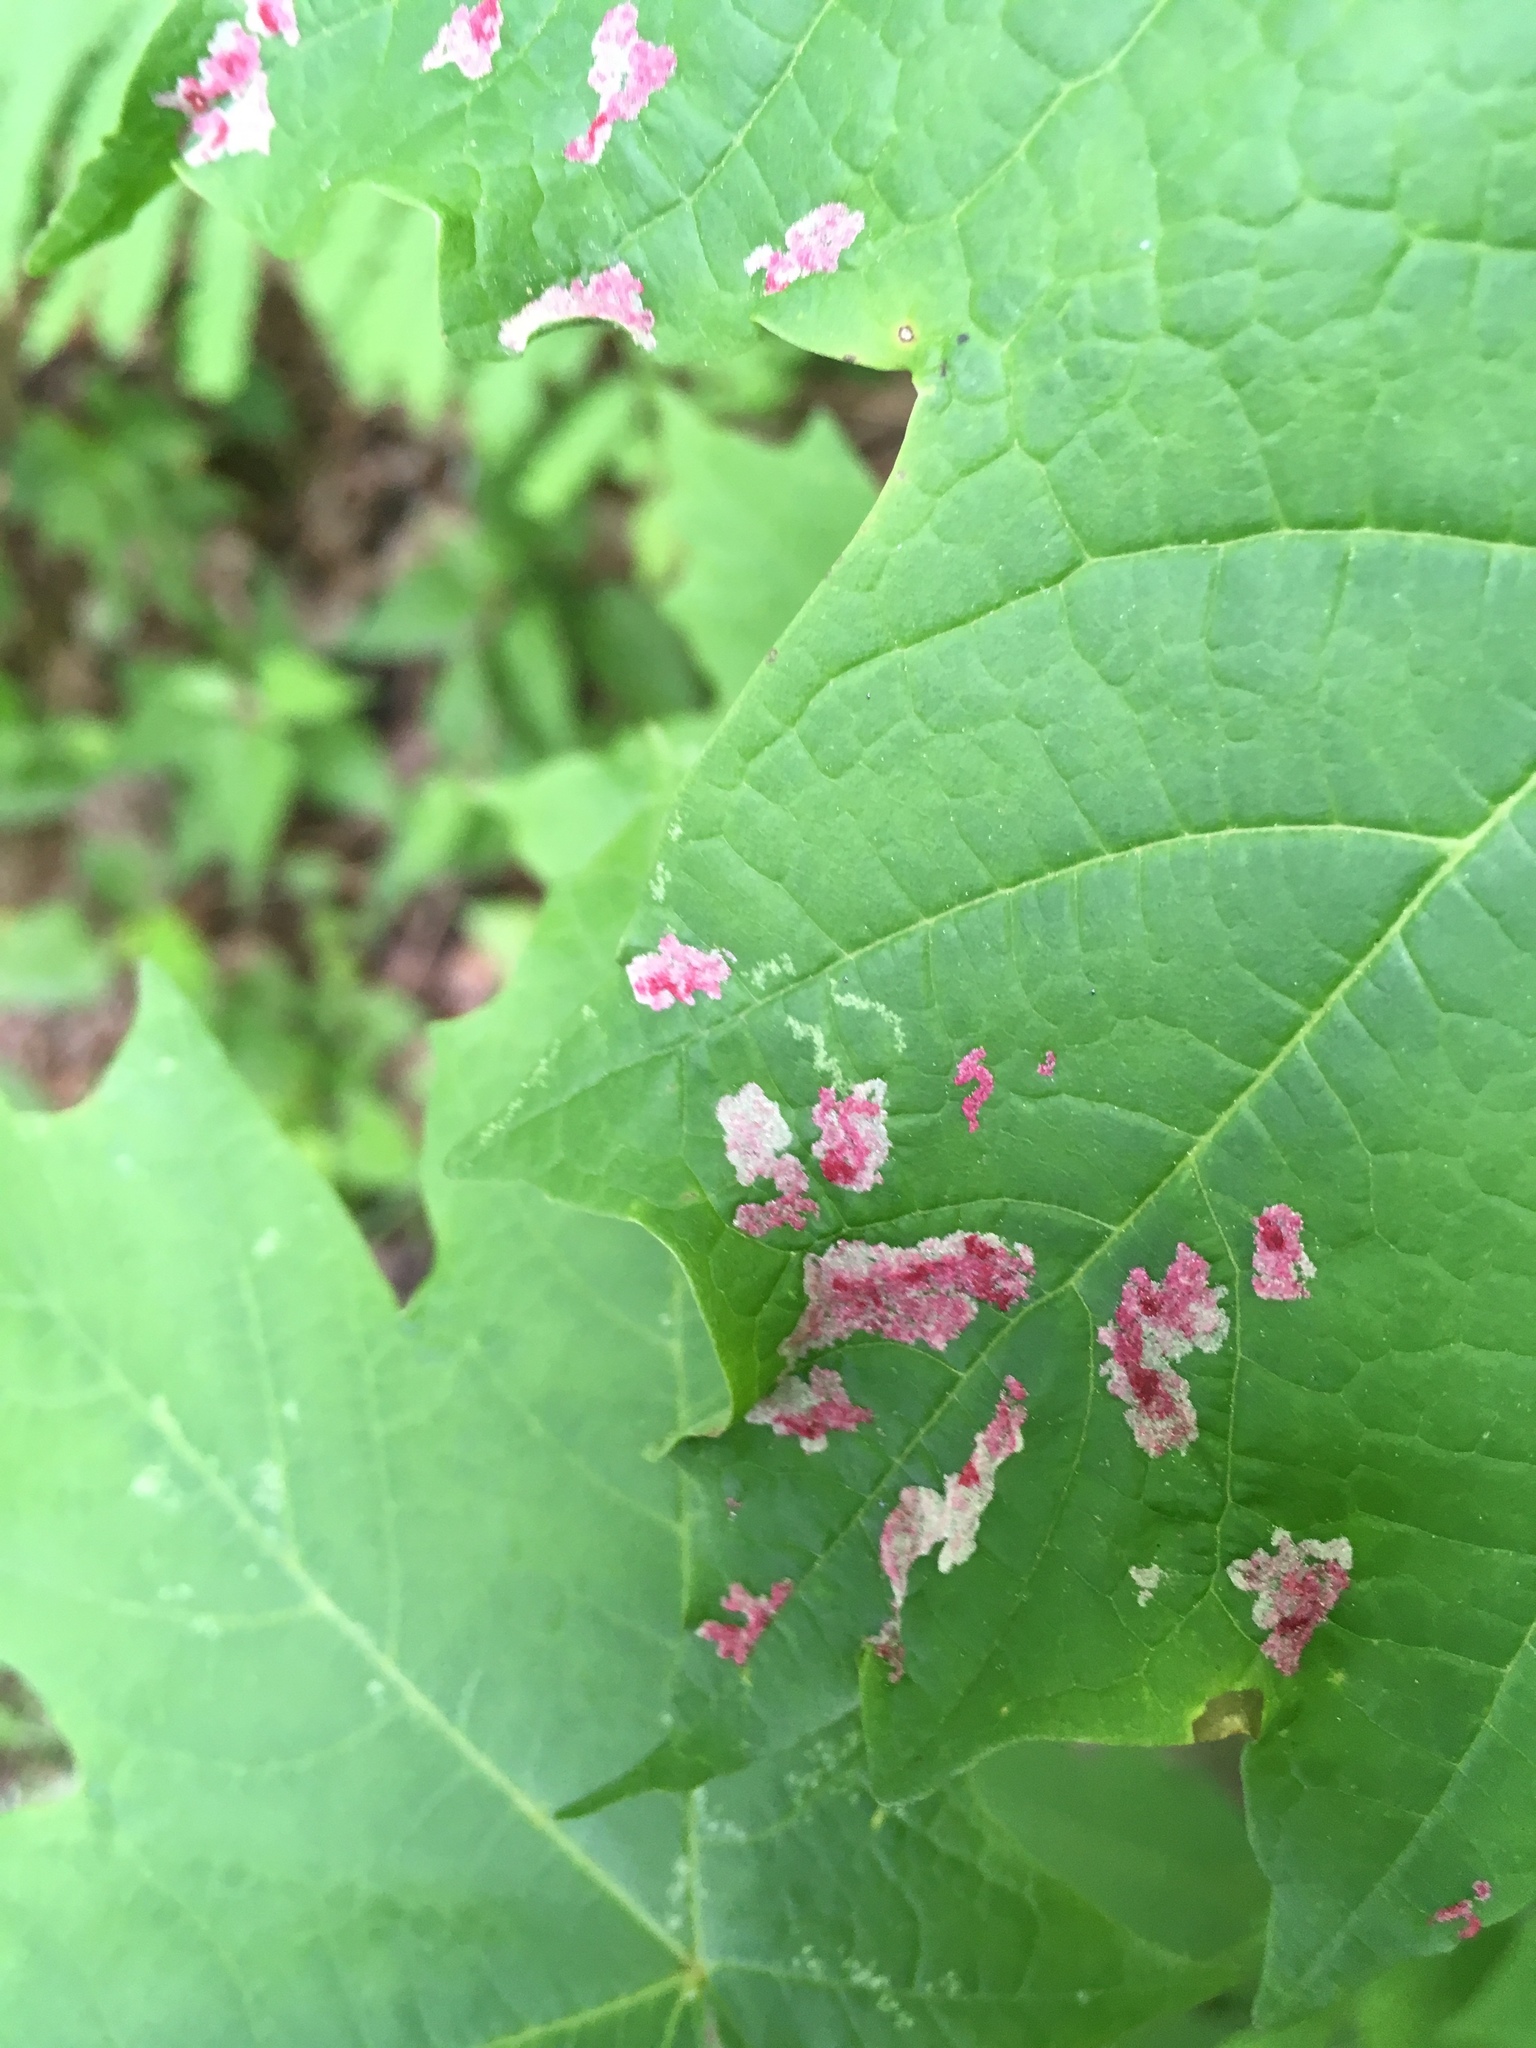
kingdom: Animalia
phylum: Arthropoda
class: Arachnida
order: Trombidiformes
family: Eriophyidae
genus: Aceria
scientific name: Aceria
